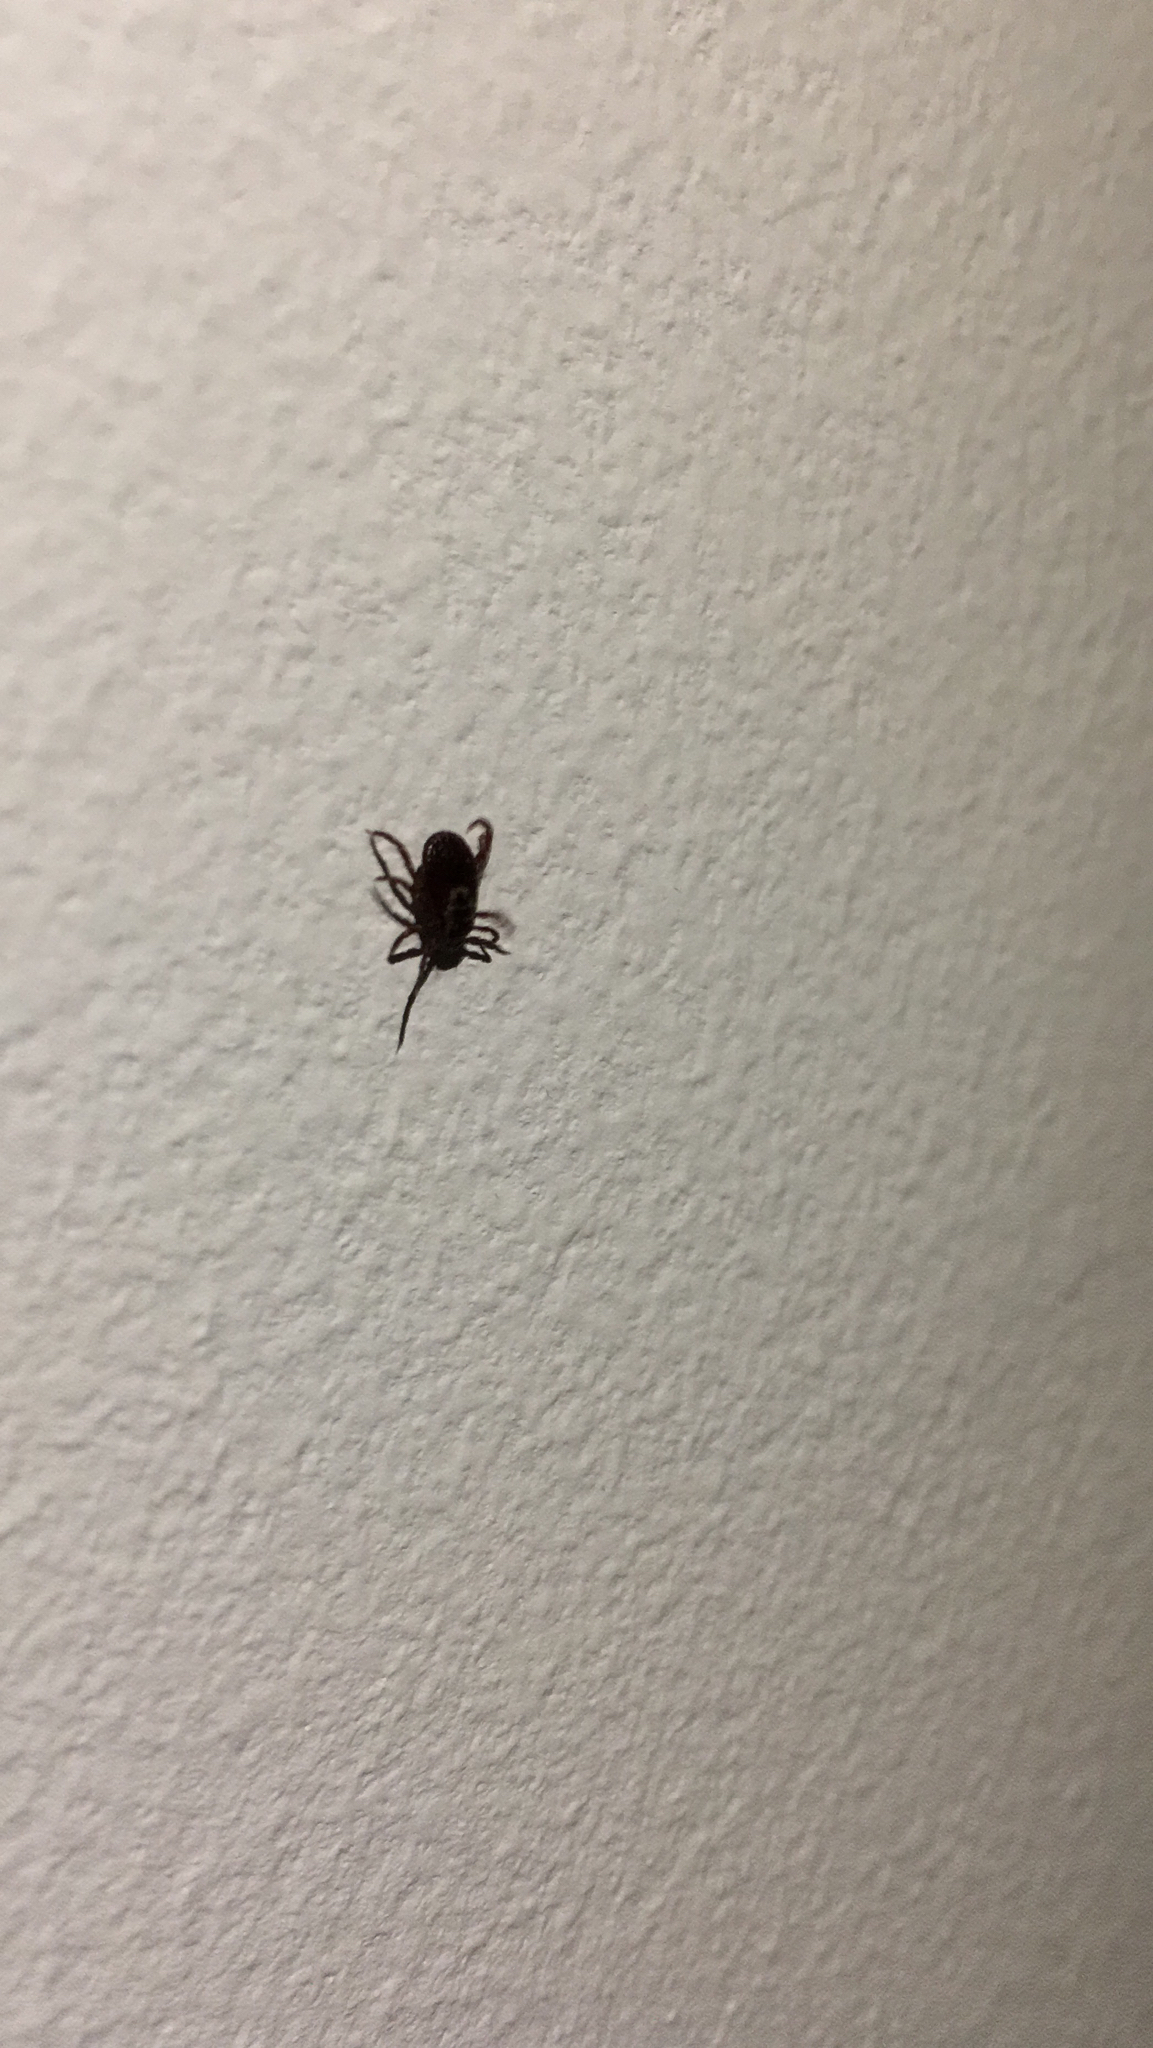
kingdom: Animalia
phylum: Arthropoda
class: Arachnida
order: Ixodida
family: Ixodidae
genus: Dermacentor
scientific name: Dermacentor variabilis
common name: American dog tick
